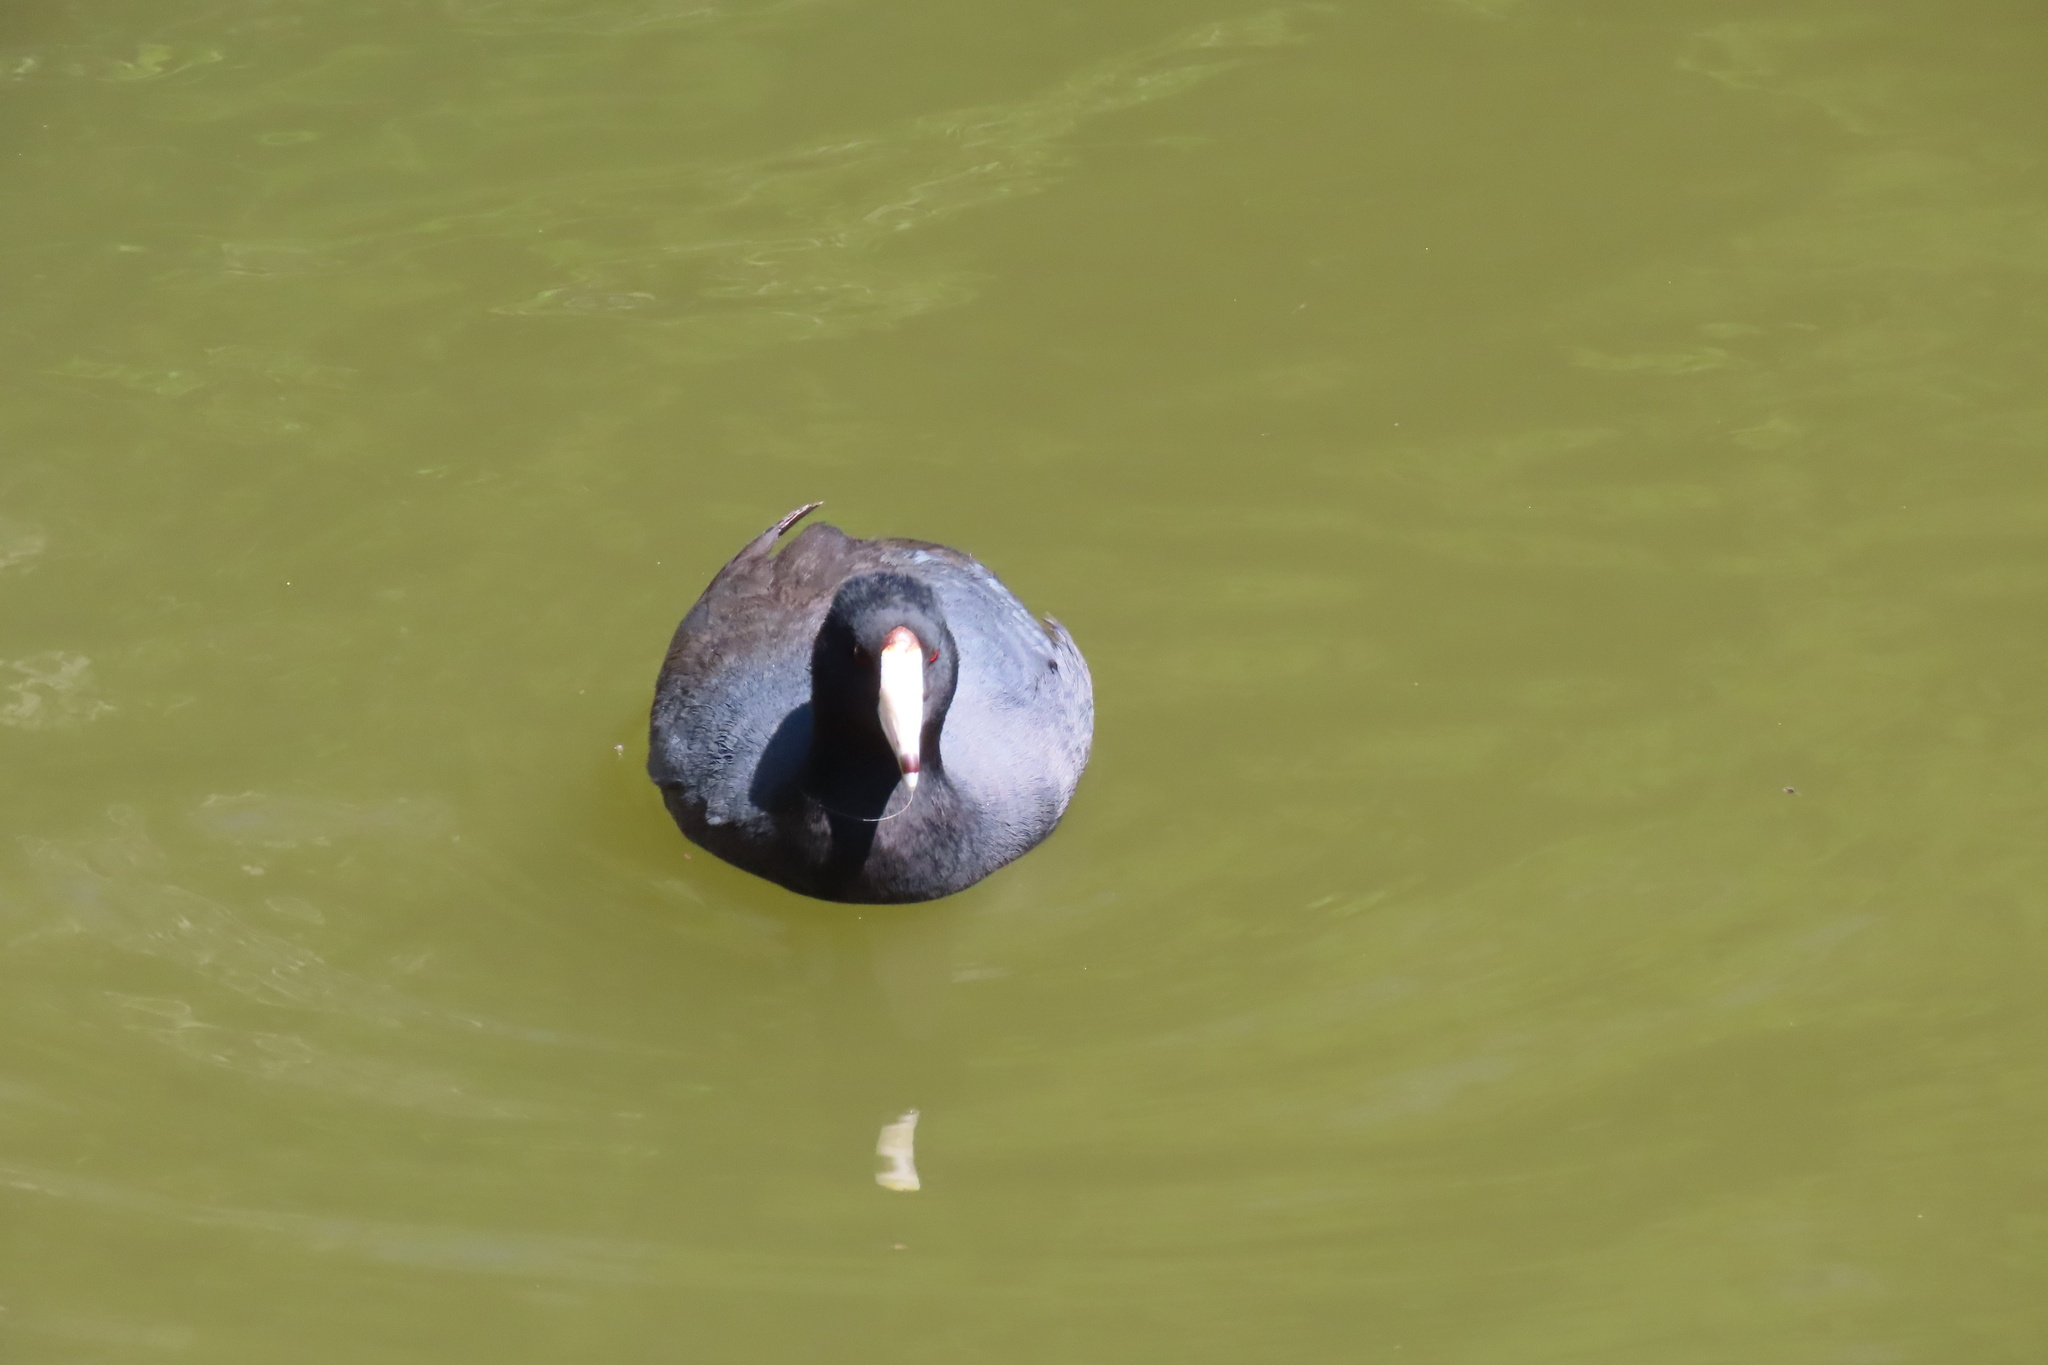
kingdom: Animalia
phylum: Chordata
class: Aves
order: Gruiformes
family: Rallidae
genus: Fulica
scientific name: Fulica americana
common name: American coot
